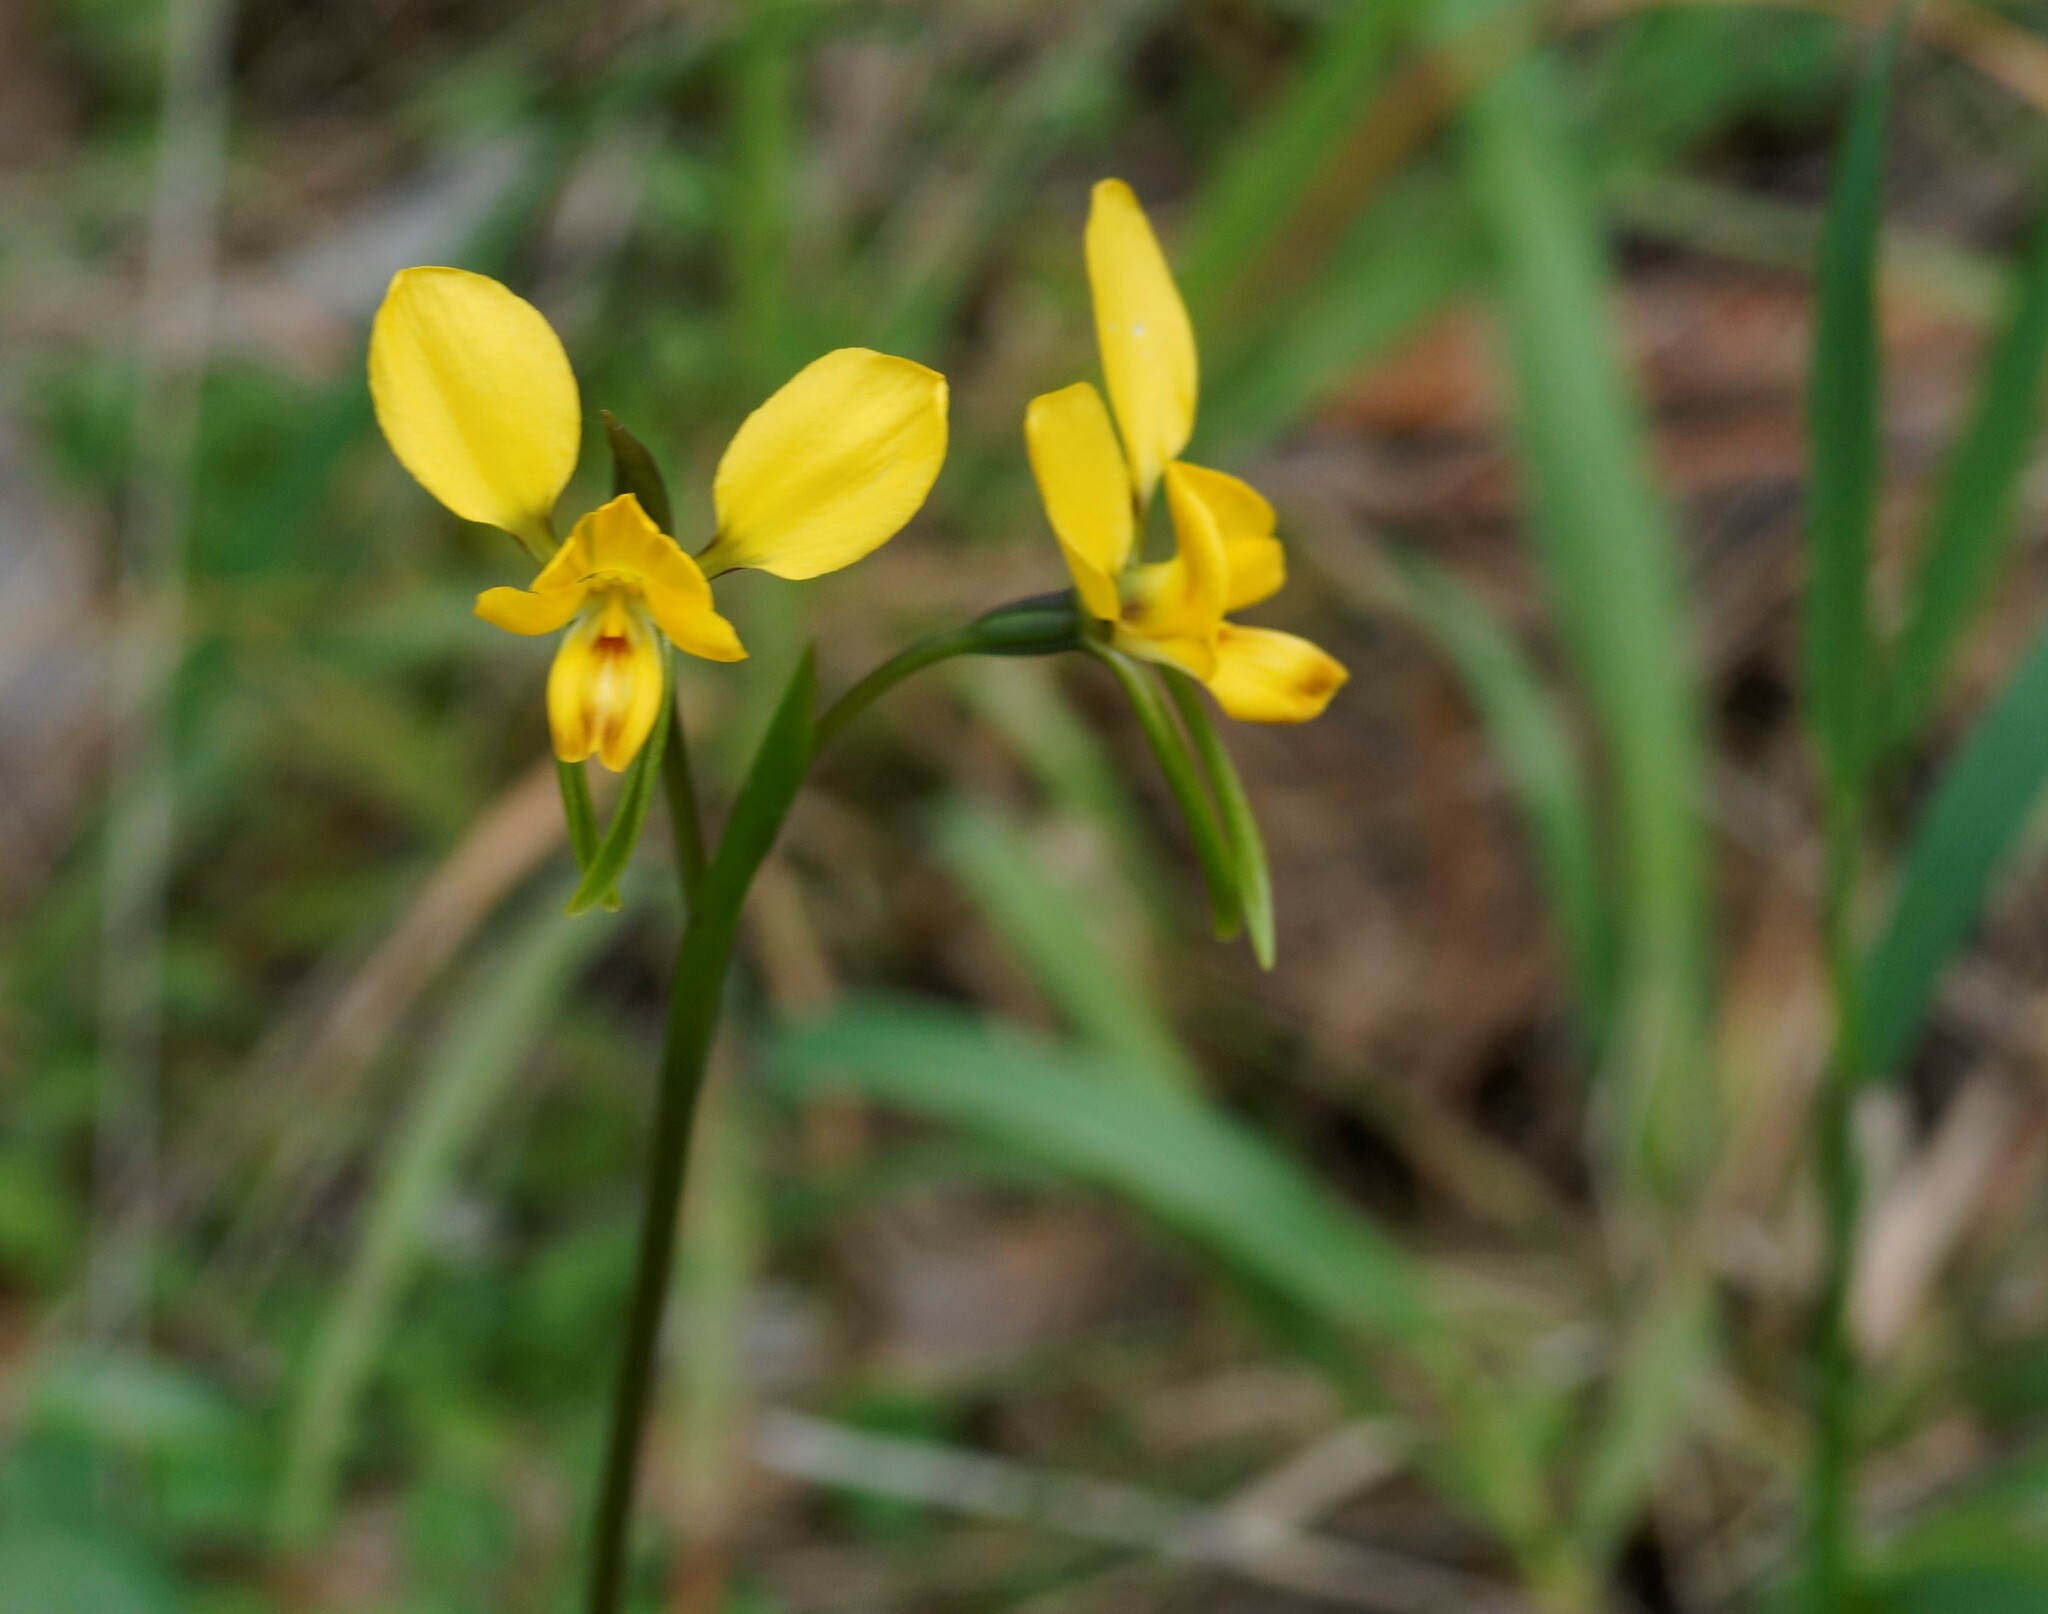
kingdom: Plantae
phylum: Tracheophyta
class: Liliopsida
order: Asparagales
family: Orchidaceae
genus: Diuris
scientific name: Diuris orientis
